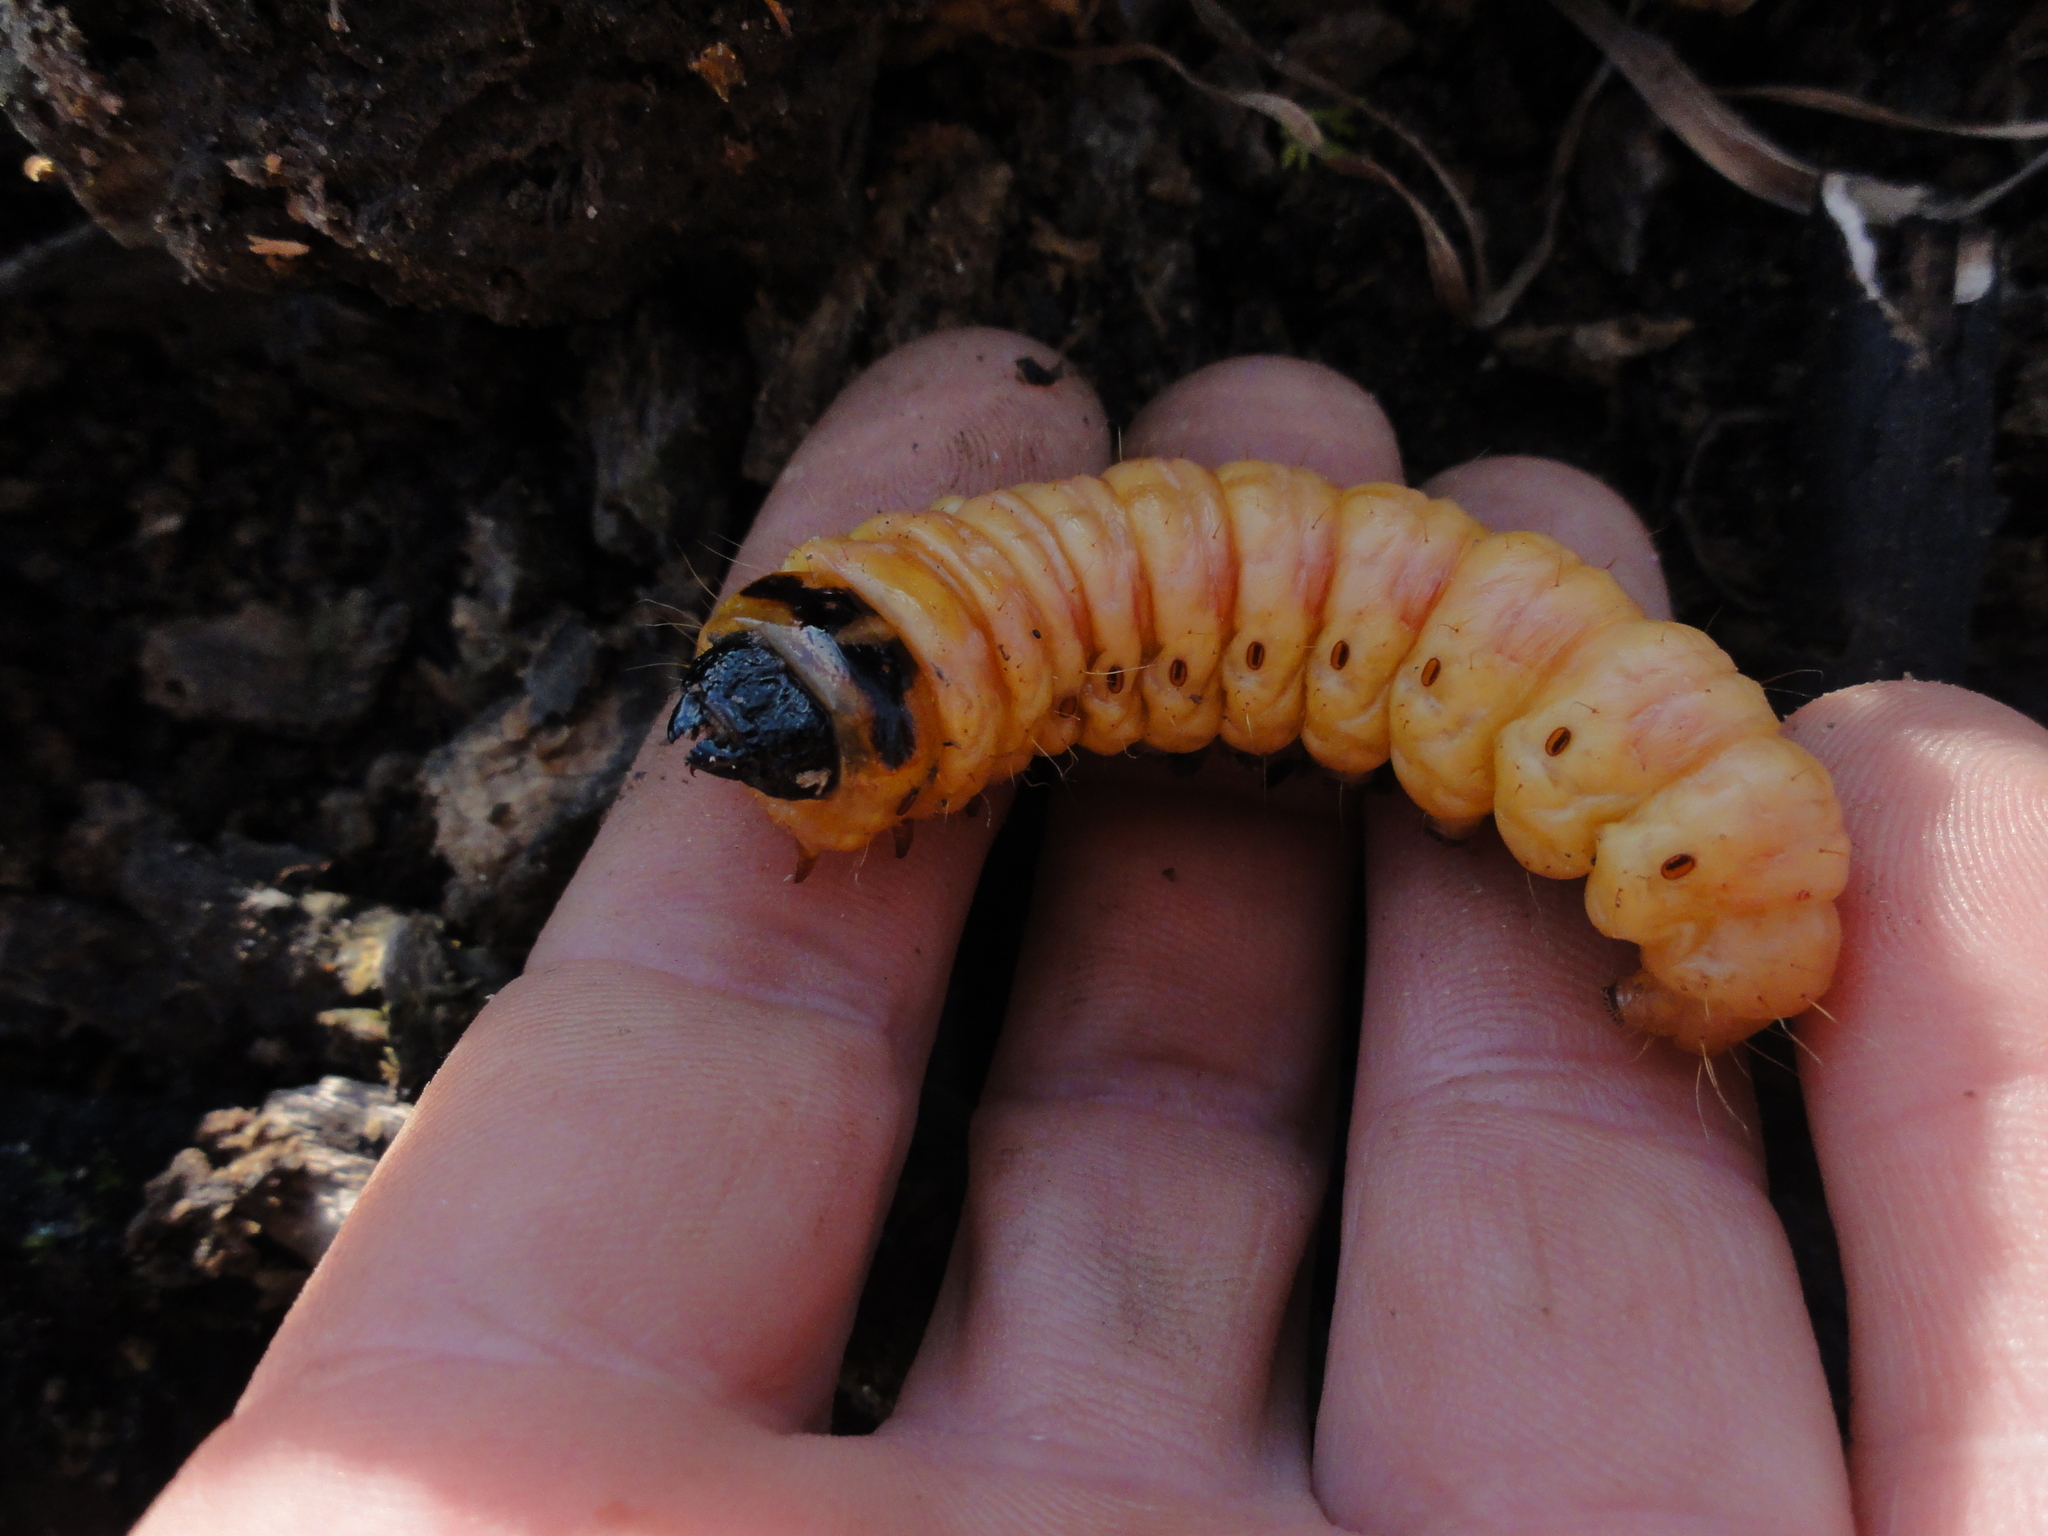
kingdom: Animalia
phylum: Arthropoda
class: Insecta
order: Lepidoptera
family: Cossidae
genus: Cossus
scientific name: Cossus cossus
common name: Goat moth
